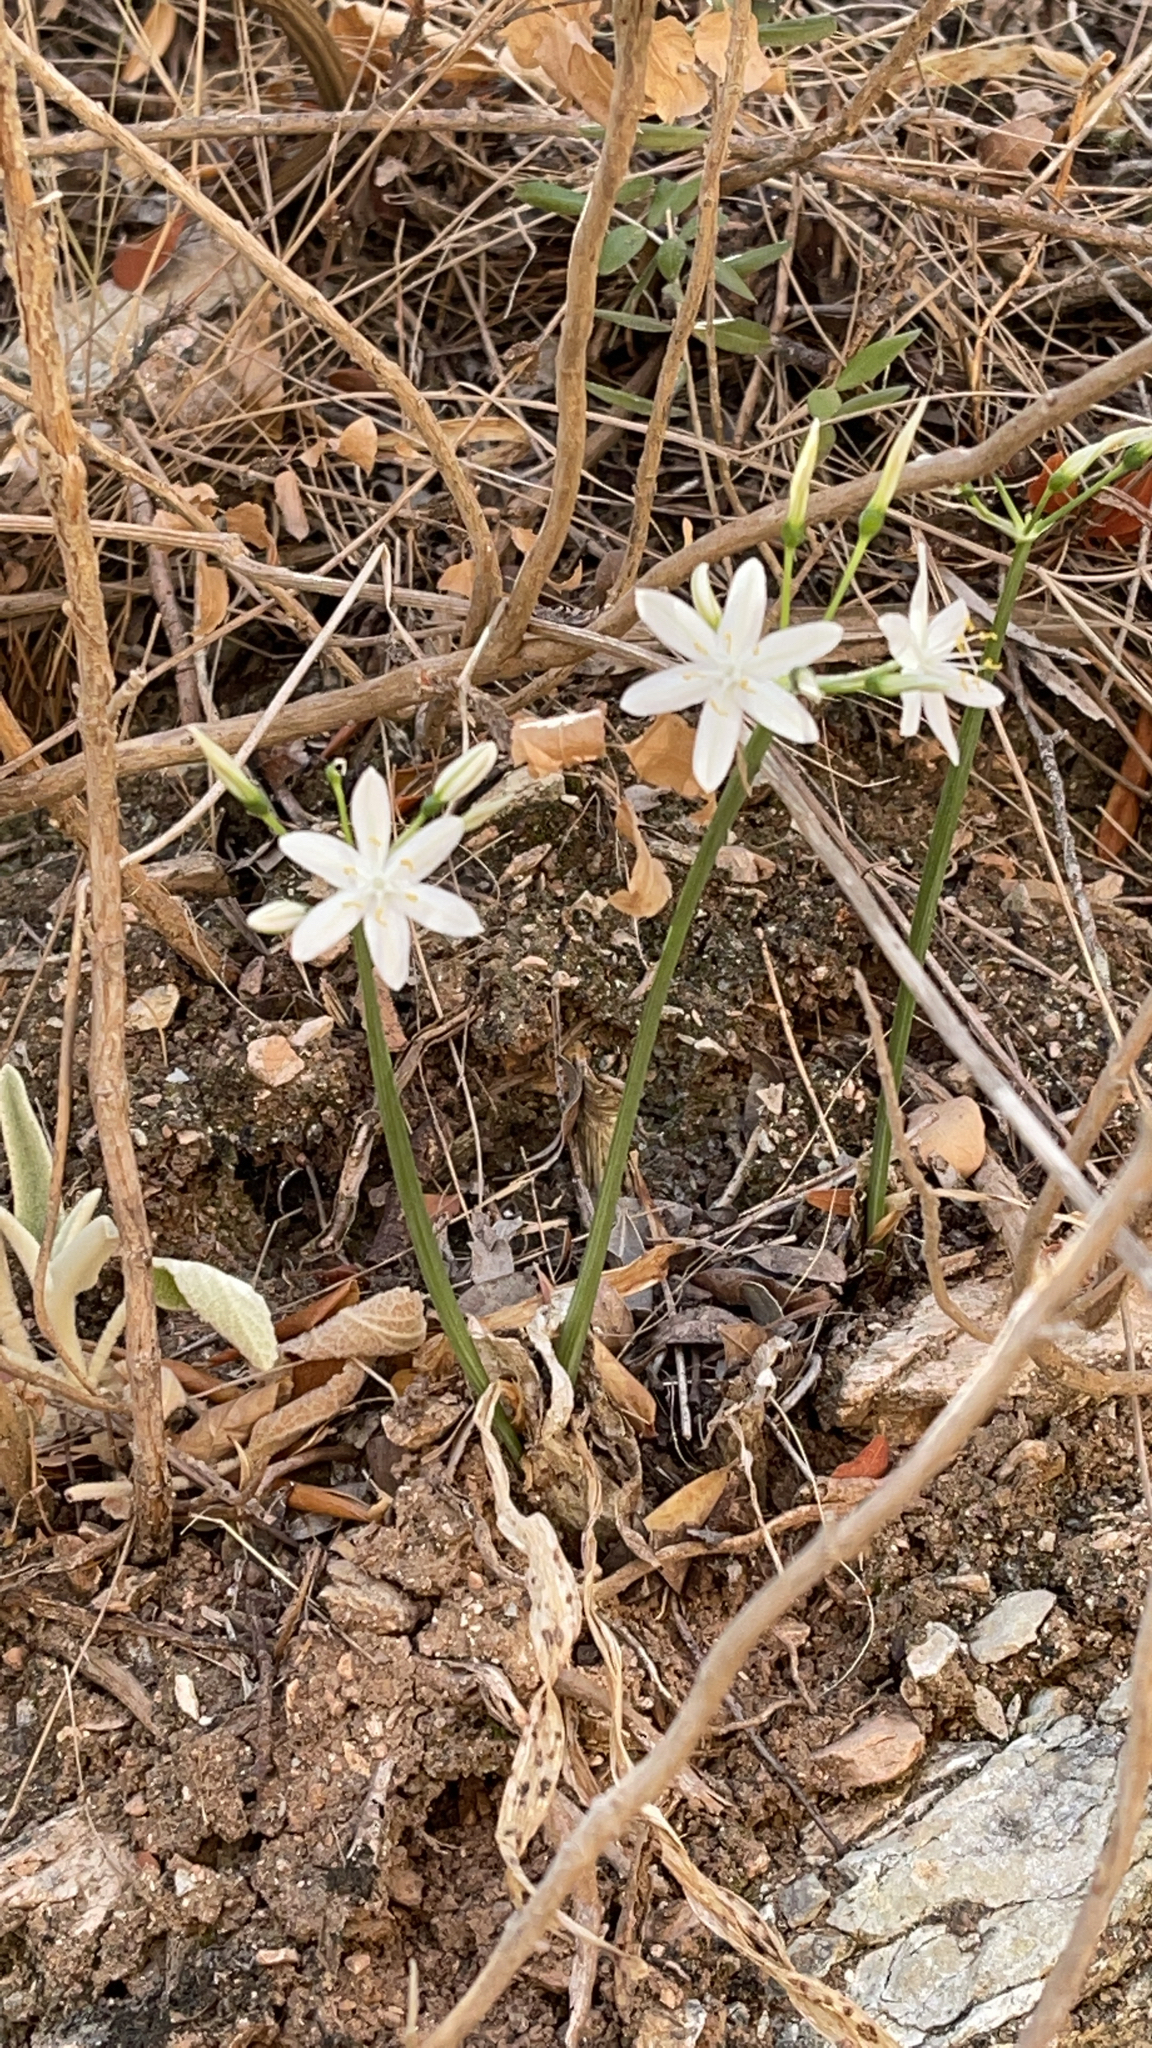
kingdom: Plantae
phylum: Tracheophyta
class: Liliopsida
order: Asparagales
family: Amaryllidaceae
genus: Lapiedra
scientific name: Lapiedra martinezii
